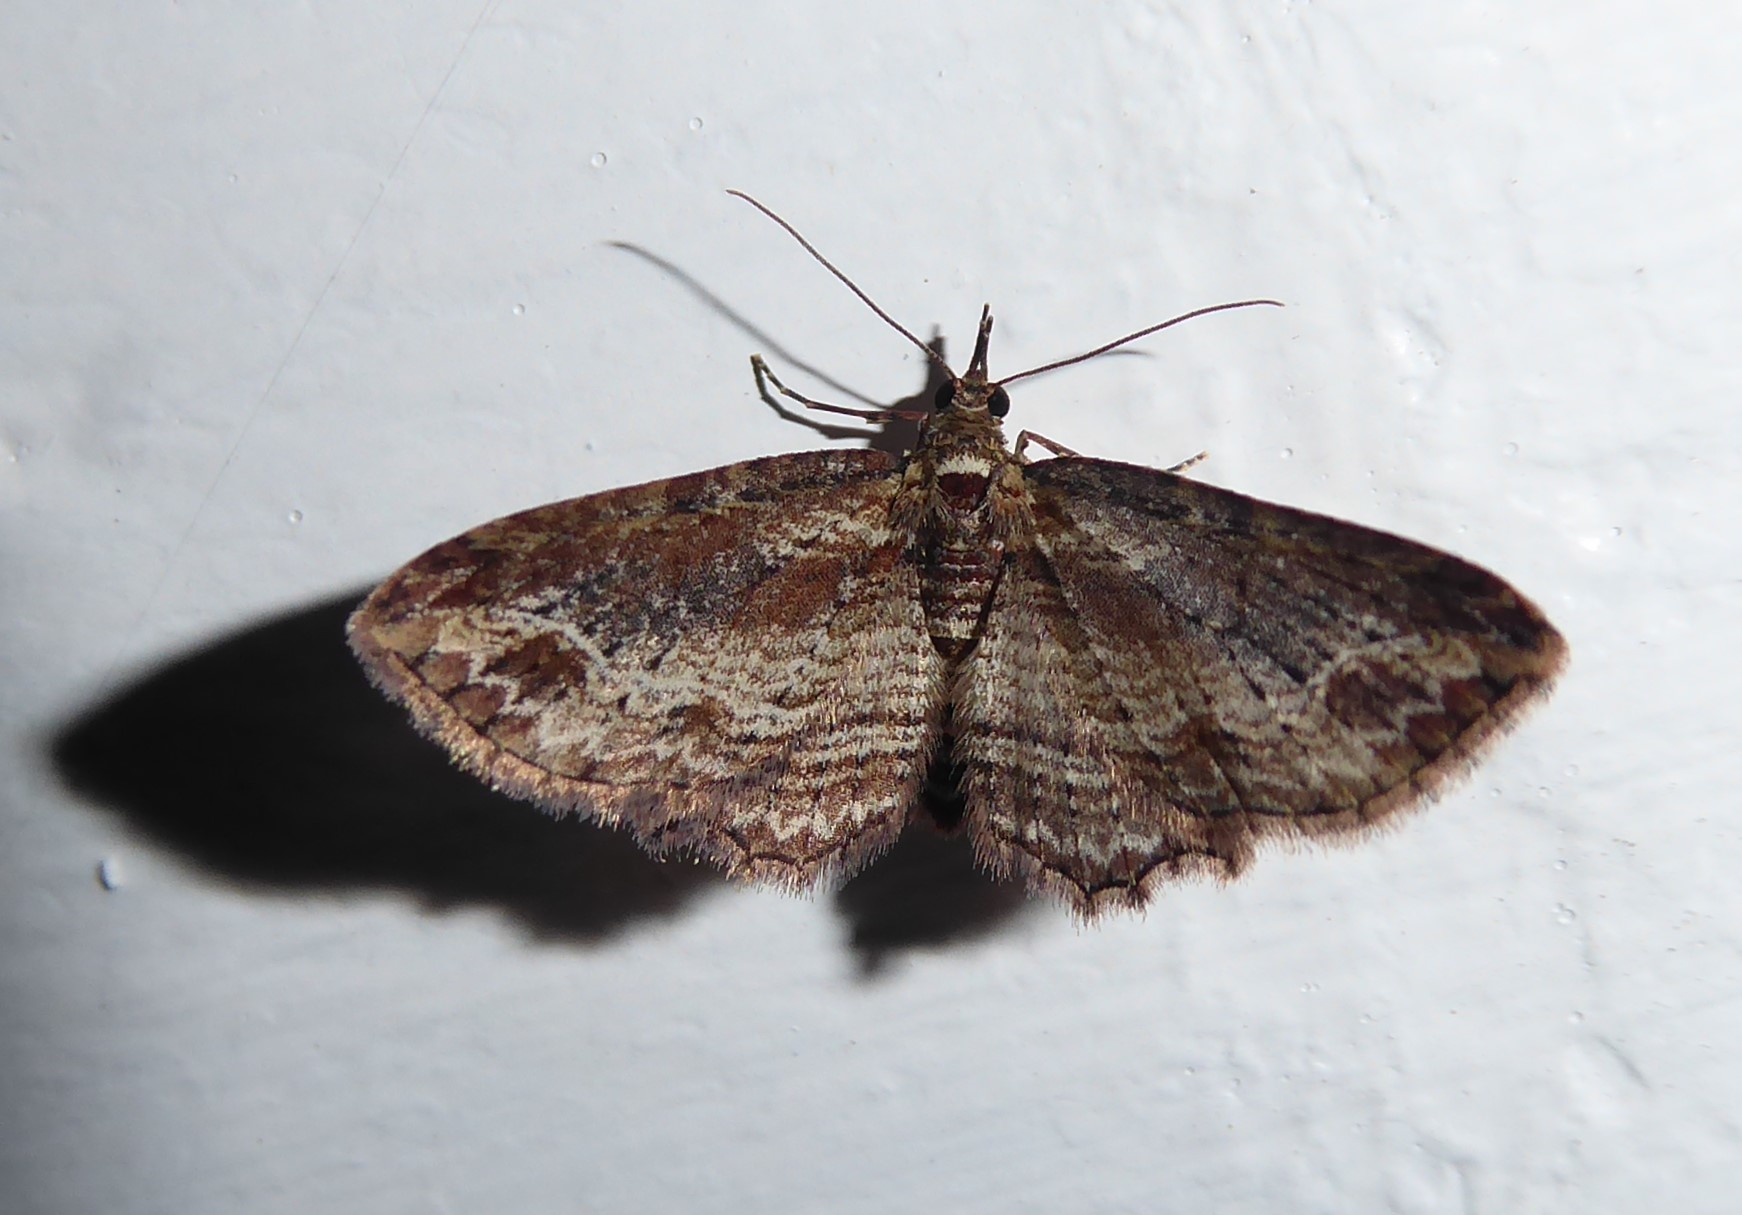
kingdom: Animalia
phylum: Arthropoda
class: Insecta
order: Lepidoptera
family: Geometridae
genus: Chloroclystis
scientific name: Chloroclystis filata
